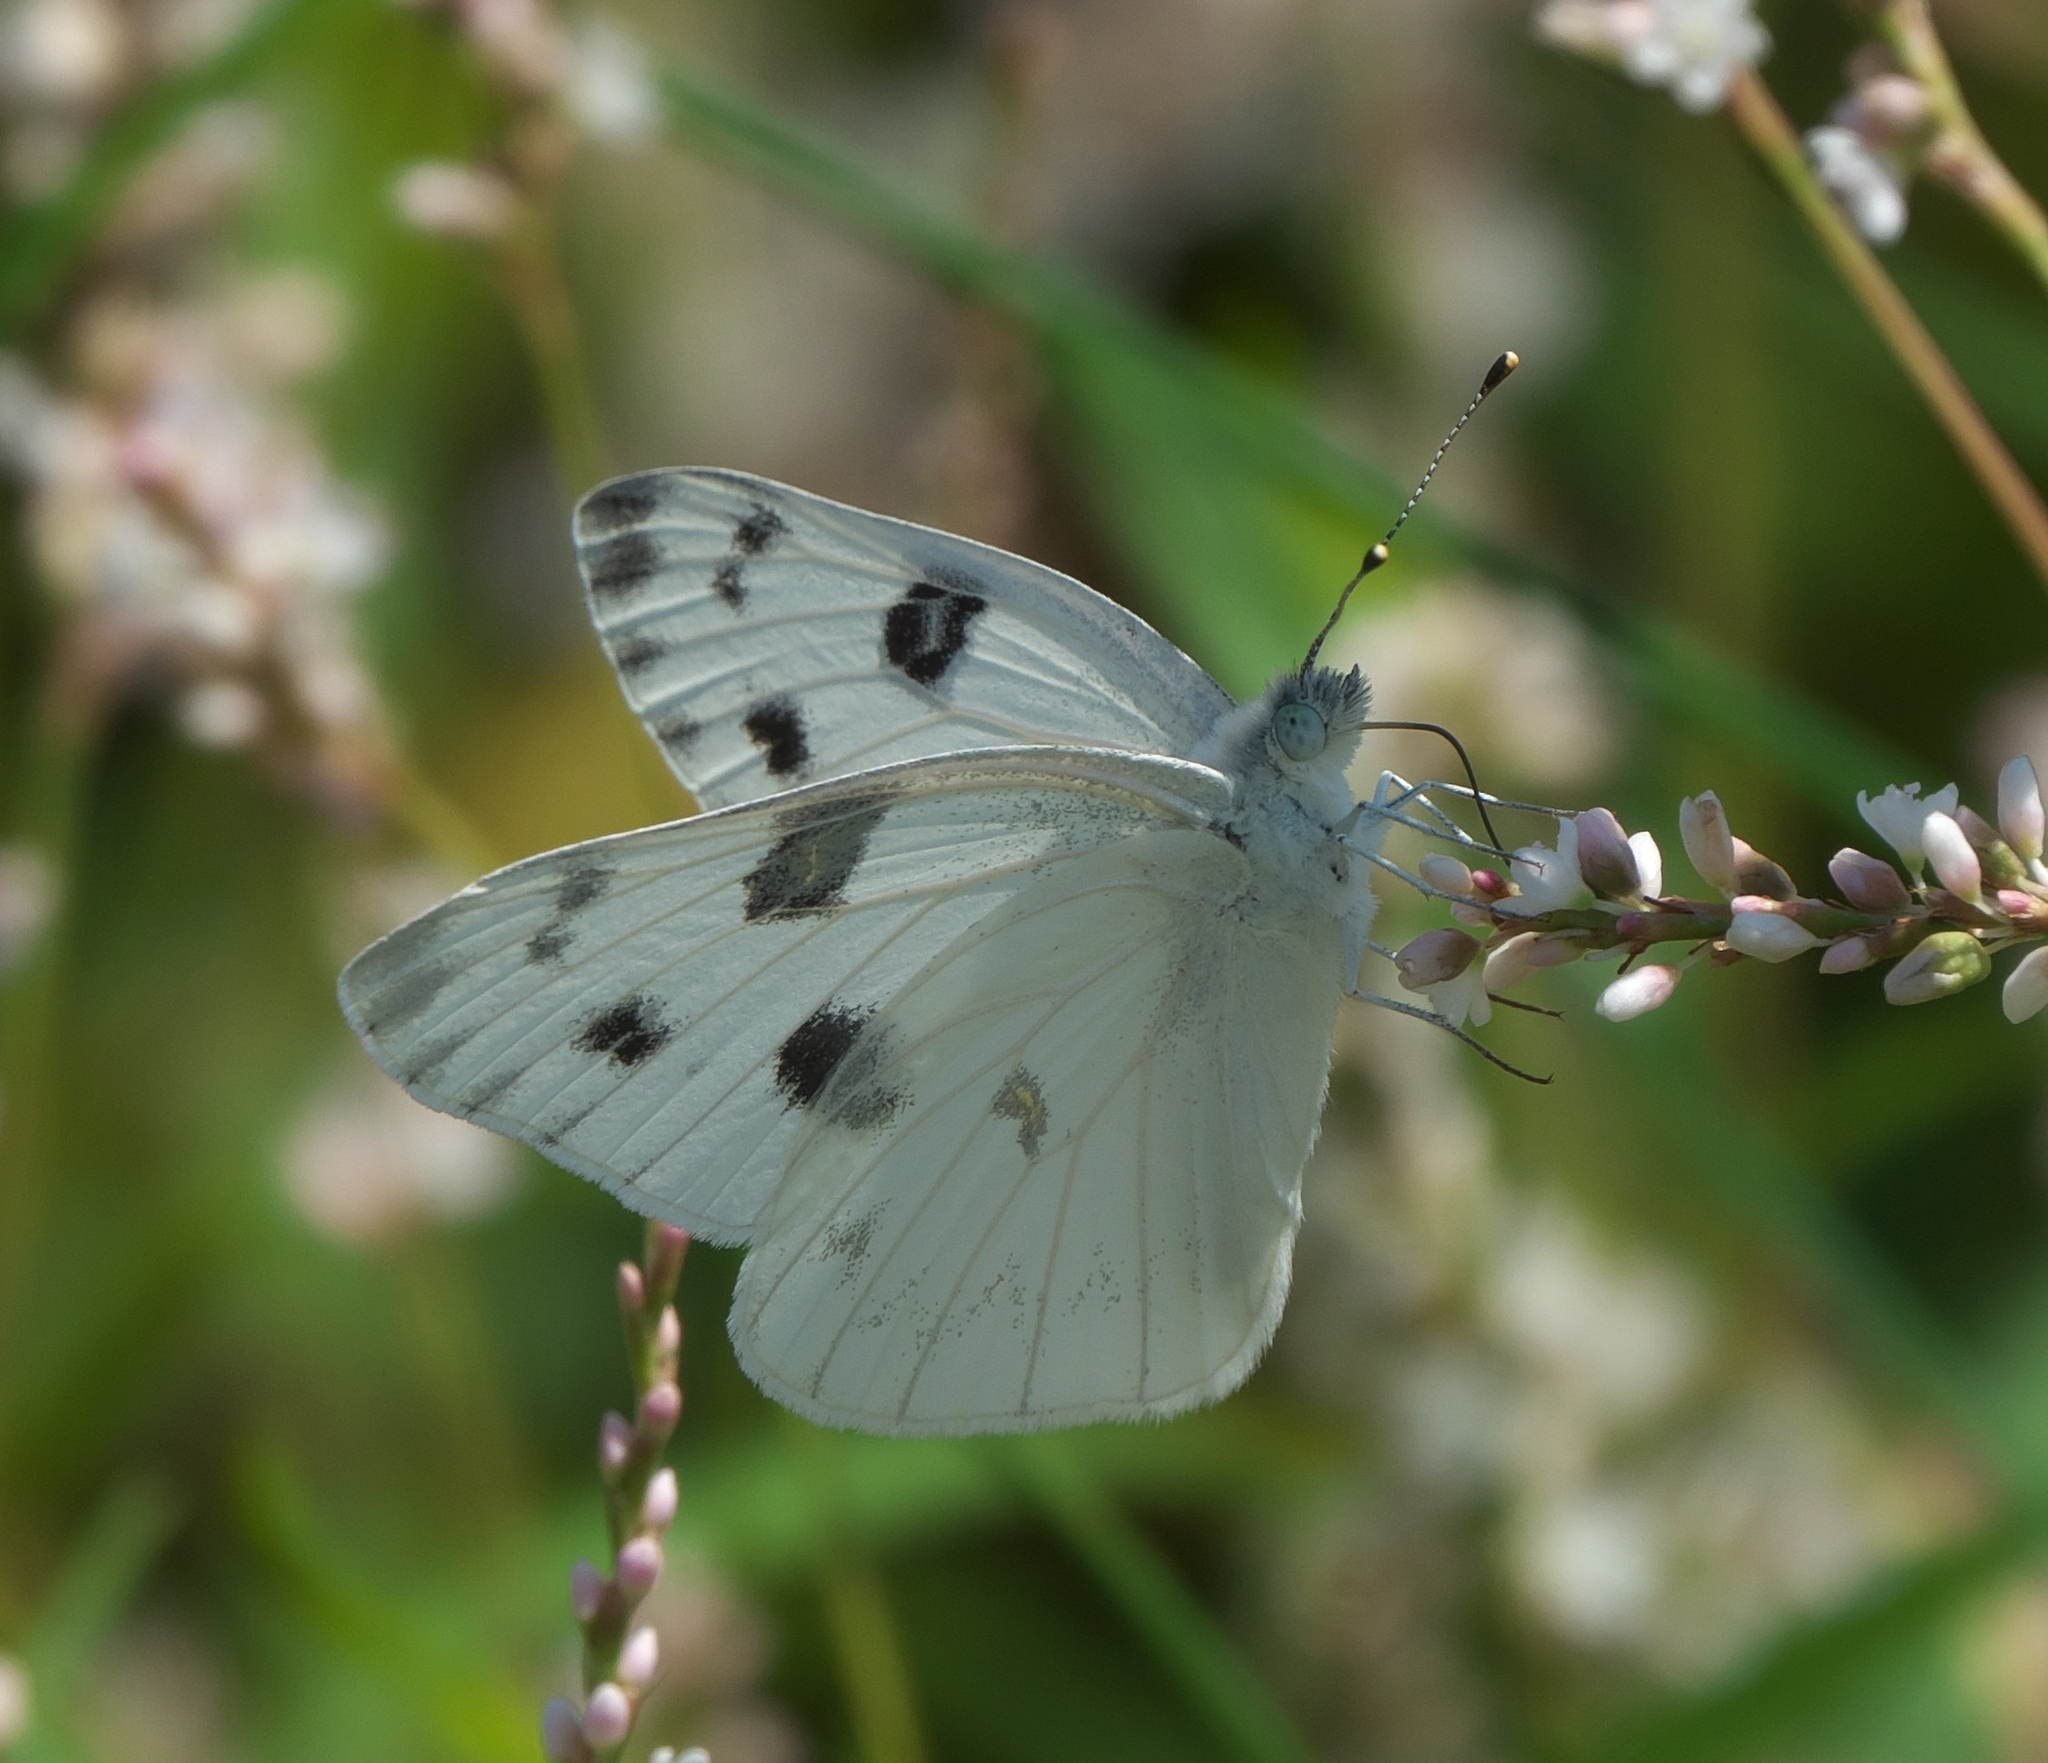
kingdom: Animalia
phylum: Arthropoda
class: Insecta
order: Lepidoptera
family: Pieridae
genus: Pontia
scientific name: Pontia protodice
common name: Checkered white
